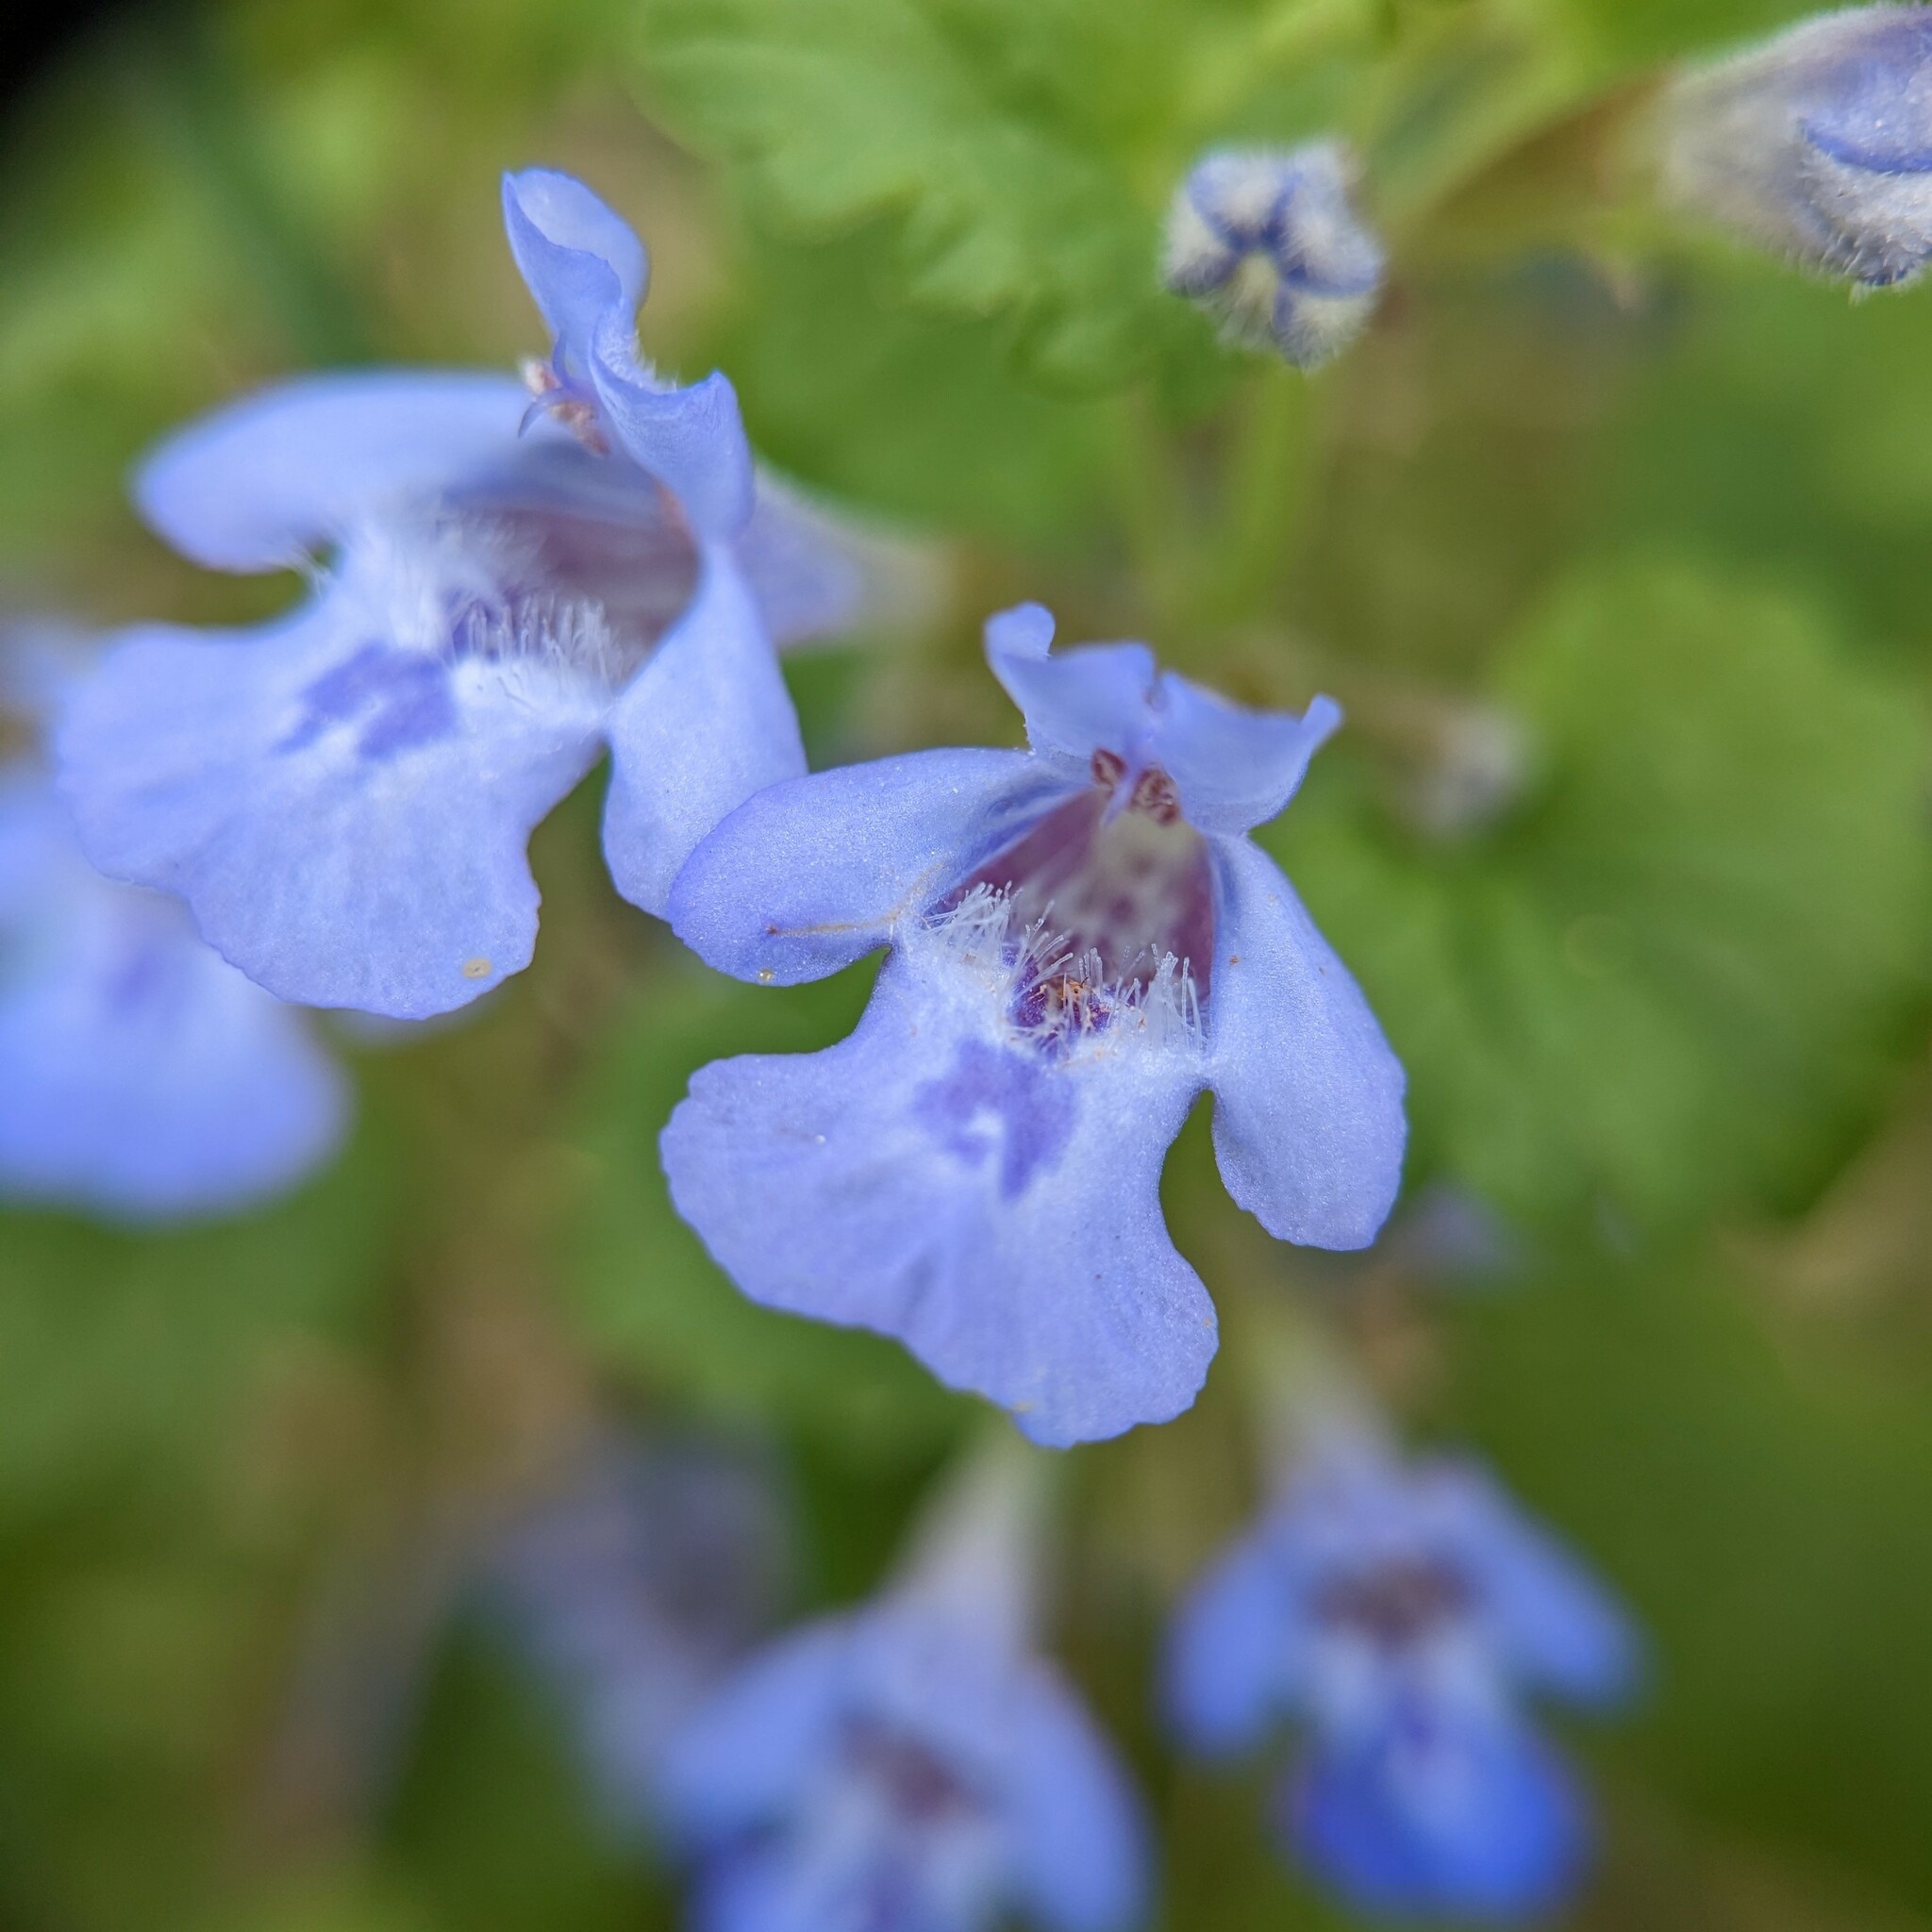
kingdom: Plantae
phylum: Tracheophyta
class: Magnoliopsida
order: Lamiales
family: Lamiaceae
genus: Glechoma
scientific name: Glechoma hederacea
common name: Ground ivy
